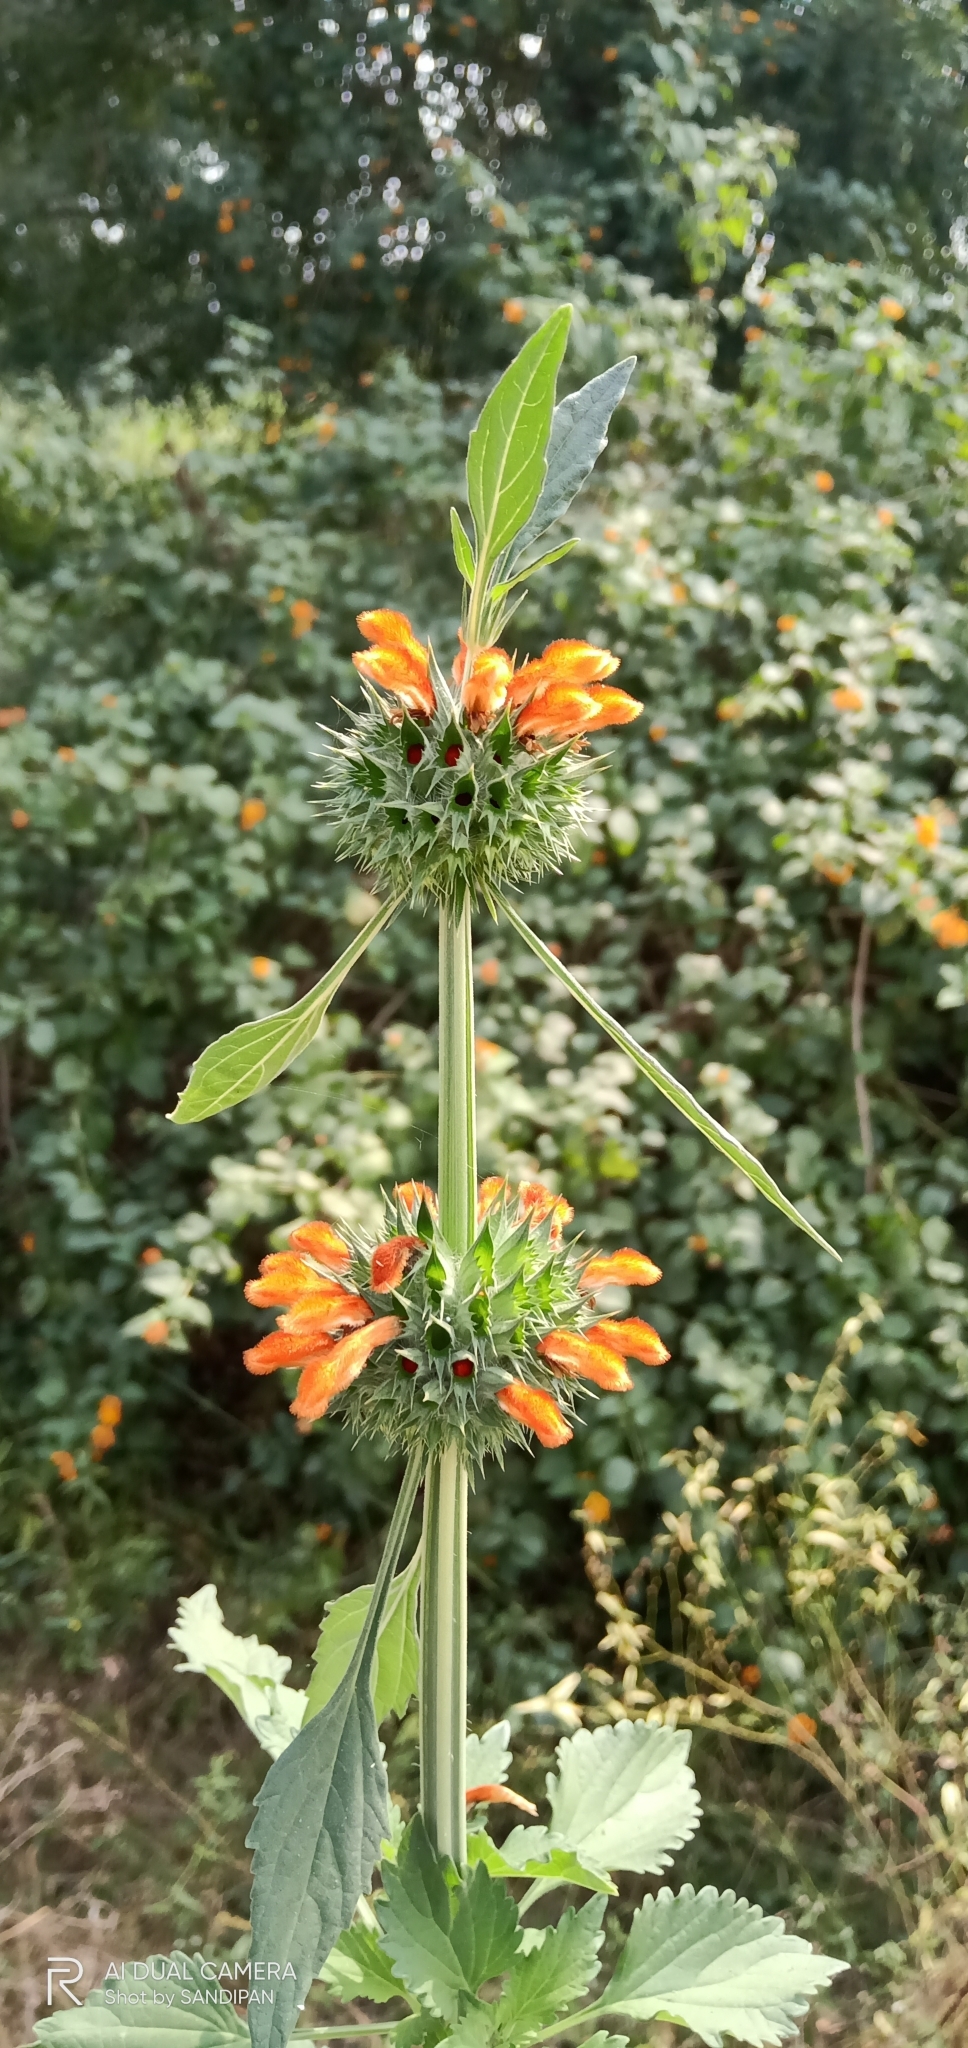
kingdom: Plantae
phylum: Tracheophyta
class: Magnoliopsida
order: Lamiales
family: Lamiaceae
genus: Leonotis
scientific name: Leonotis nepetifolia
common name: Christmas candlestick
